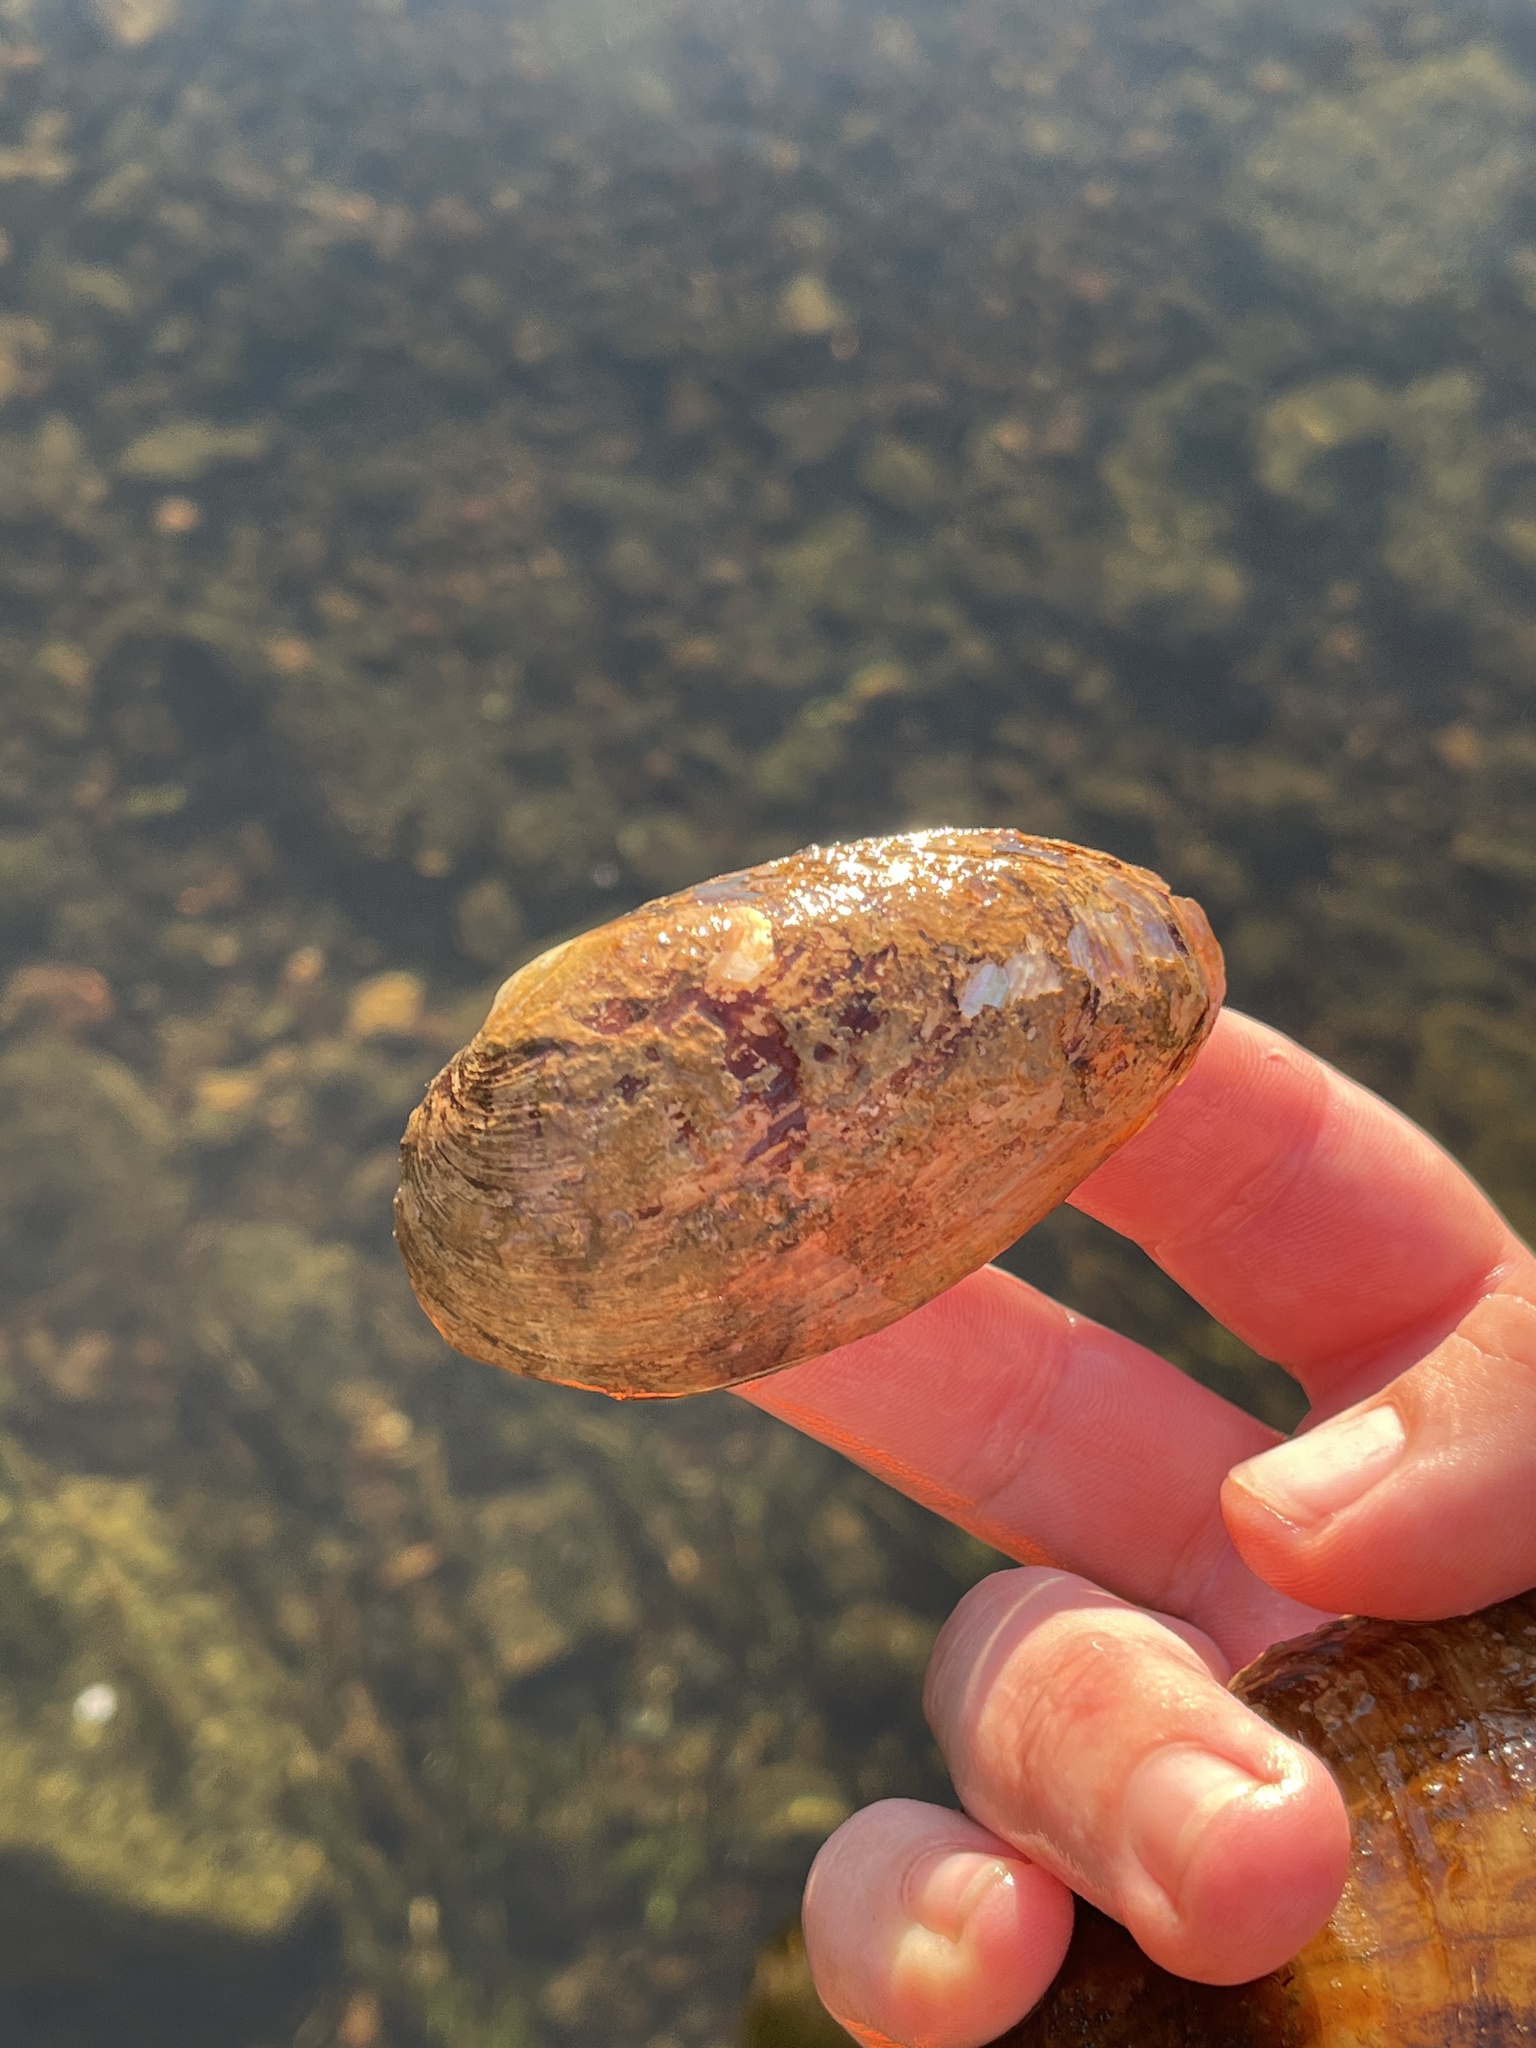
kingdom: Animalia
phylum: Mollusca
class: Bivalvia
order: Unionida
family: Unionidae
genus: Eurynia
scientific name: Eurynia dilatata
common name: Spike
